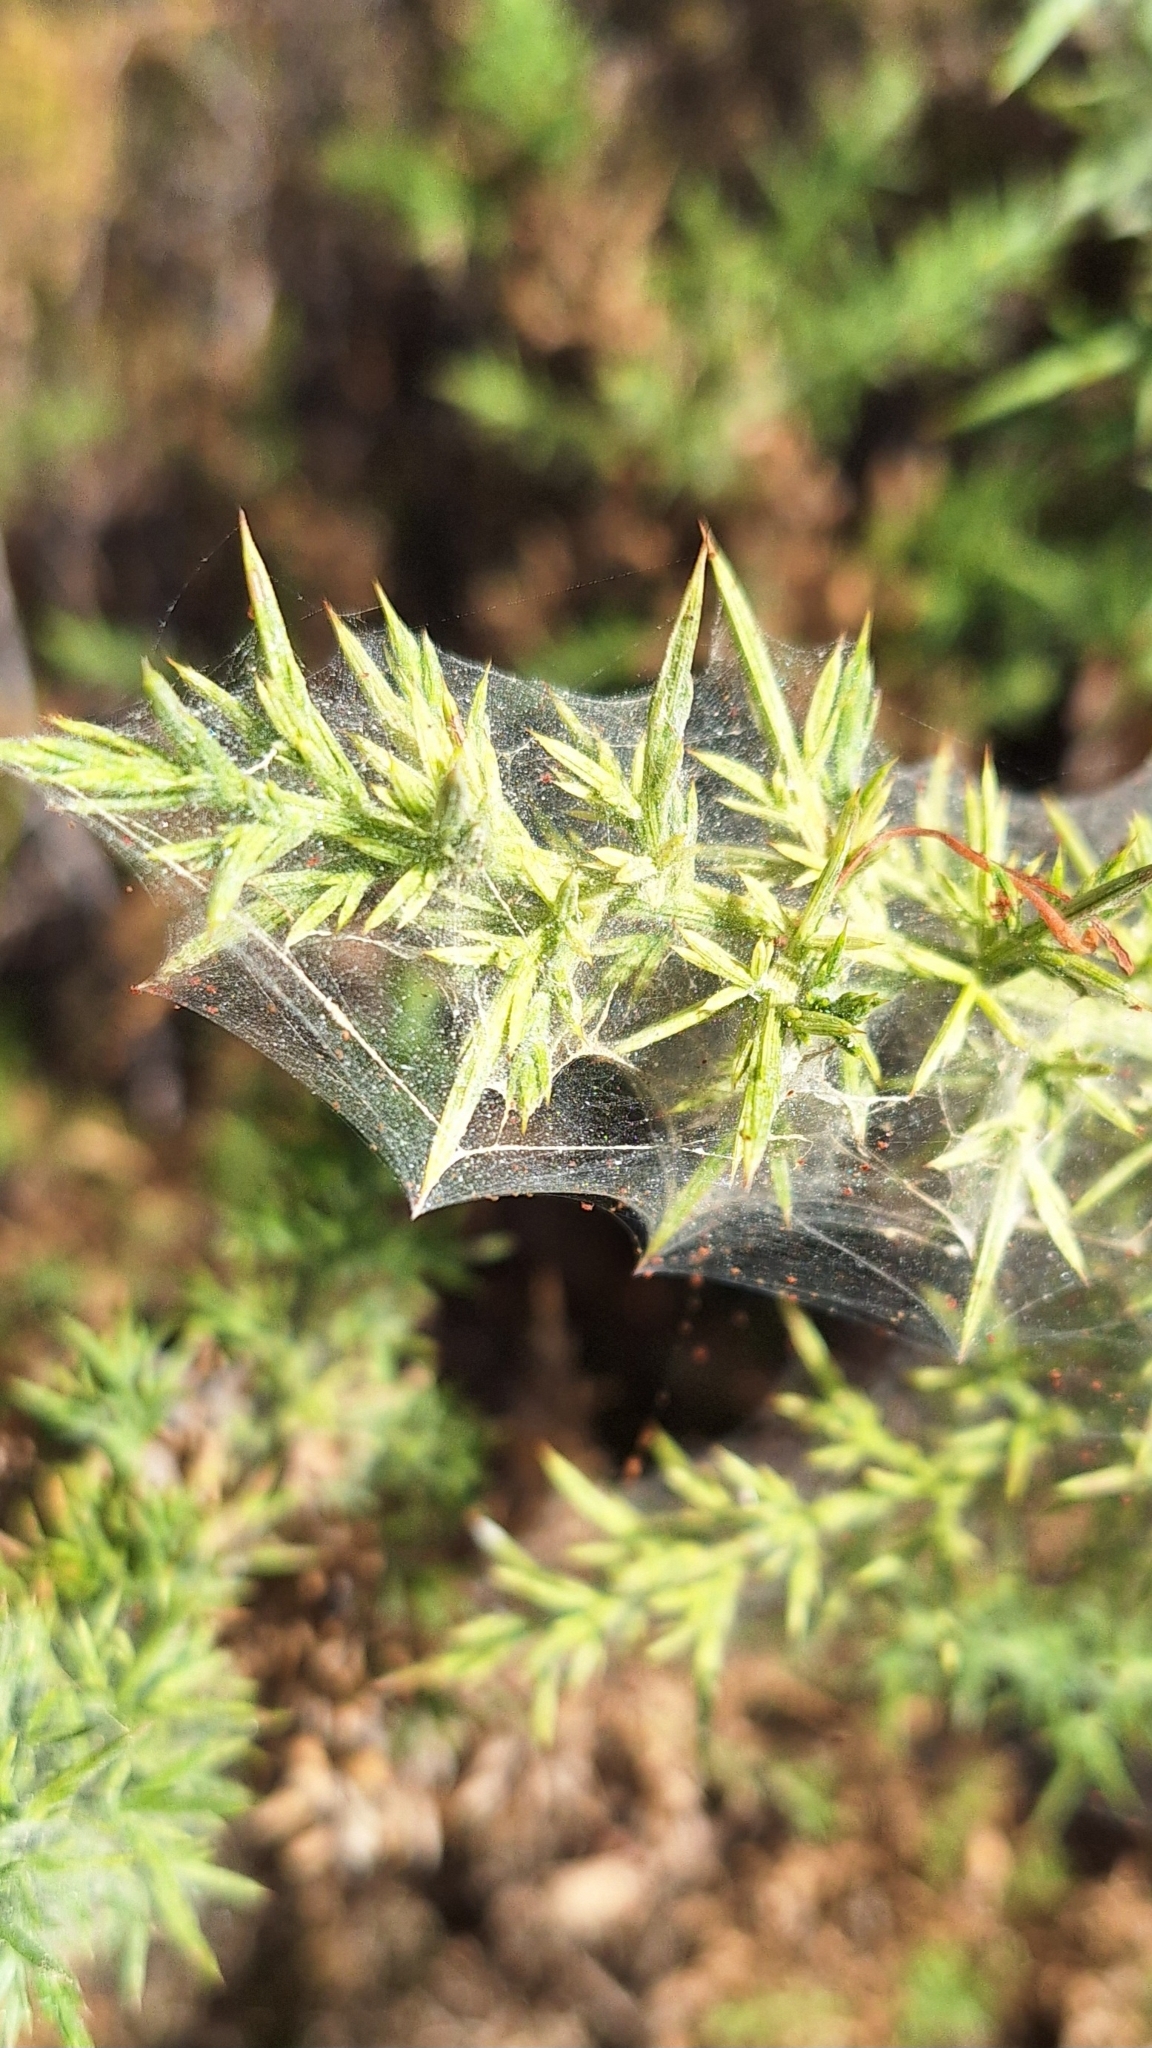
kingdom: Animalia
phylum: Arthropoda
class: Arachnida
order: Trombidiformes
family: Tetranychidae
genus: Tetranychus
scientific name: Tetranychus lintearius
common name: Gorse spider mite
